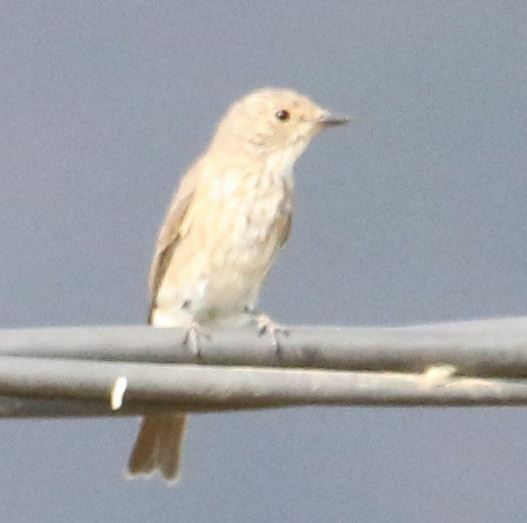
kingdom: Animalia
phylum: Chordata
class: Aves
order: Passeriformes
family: Muscicapidae
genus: Muscicapa
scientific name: Muscicapa striata
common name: Spotted flycatcher
